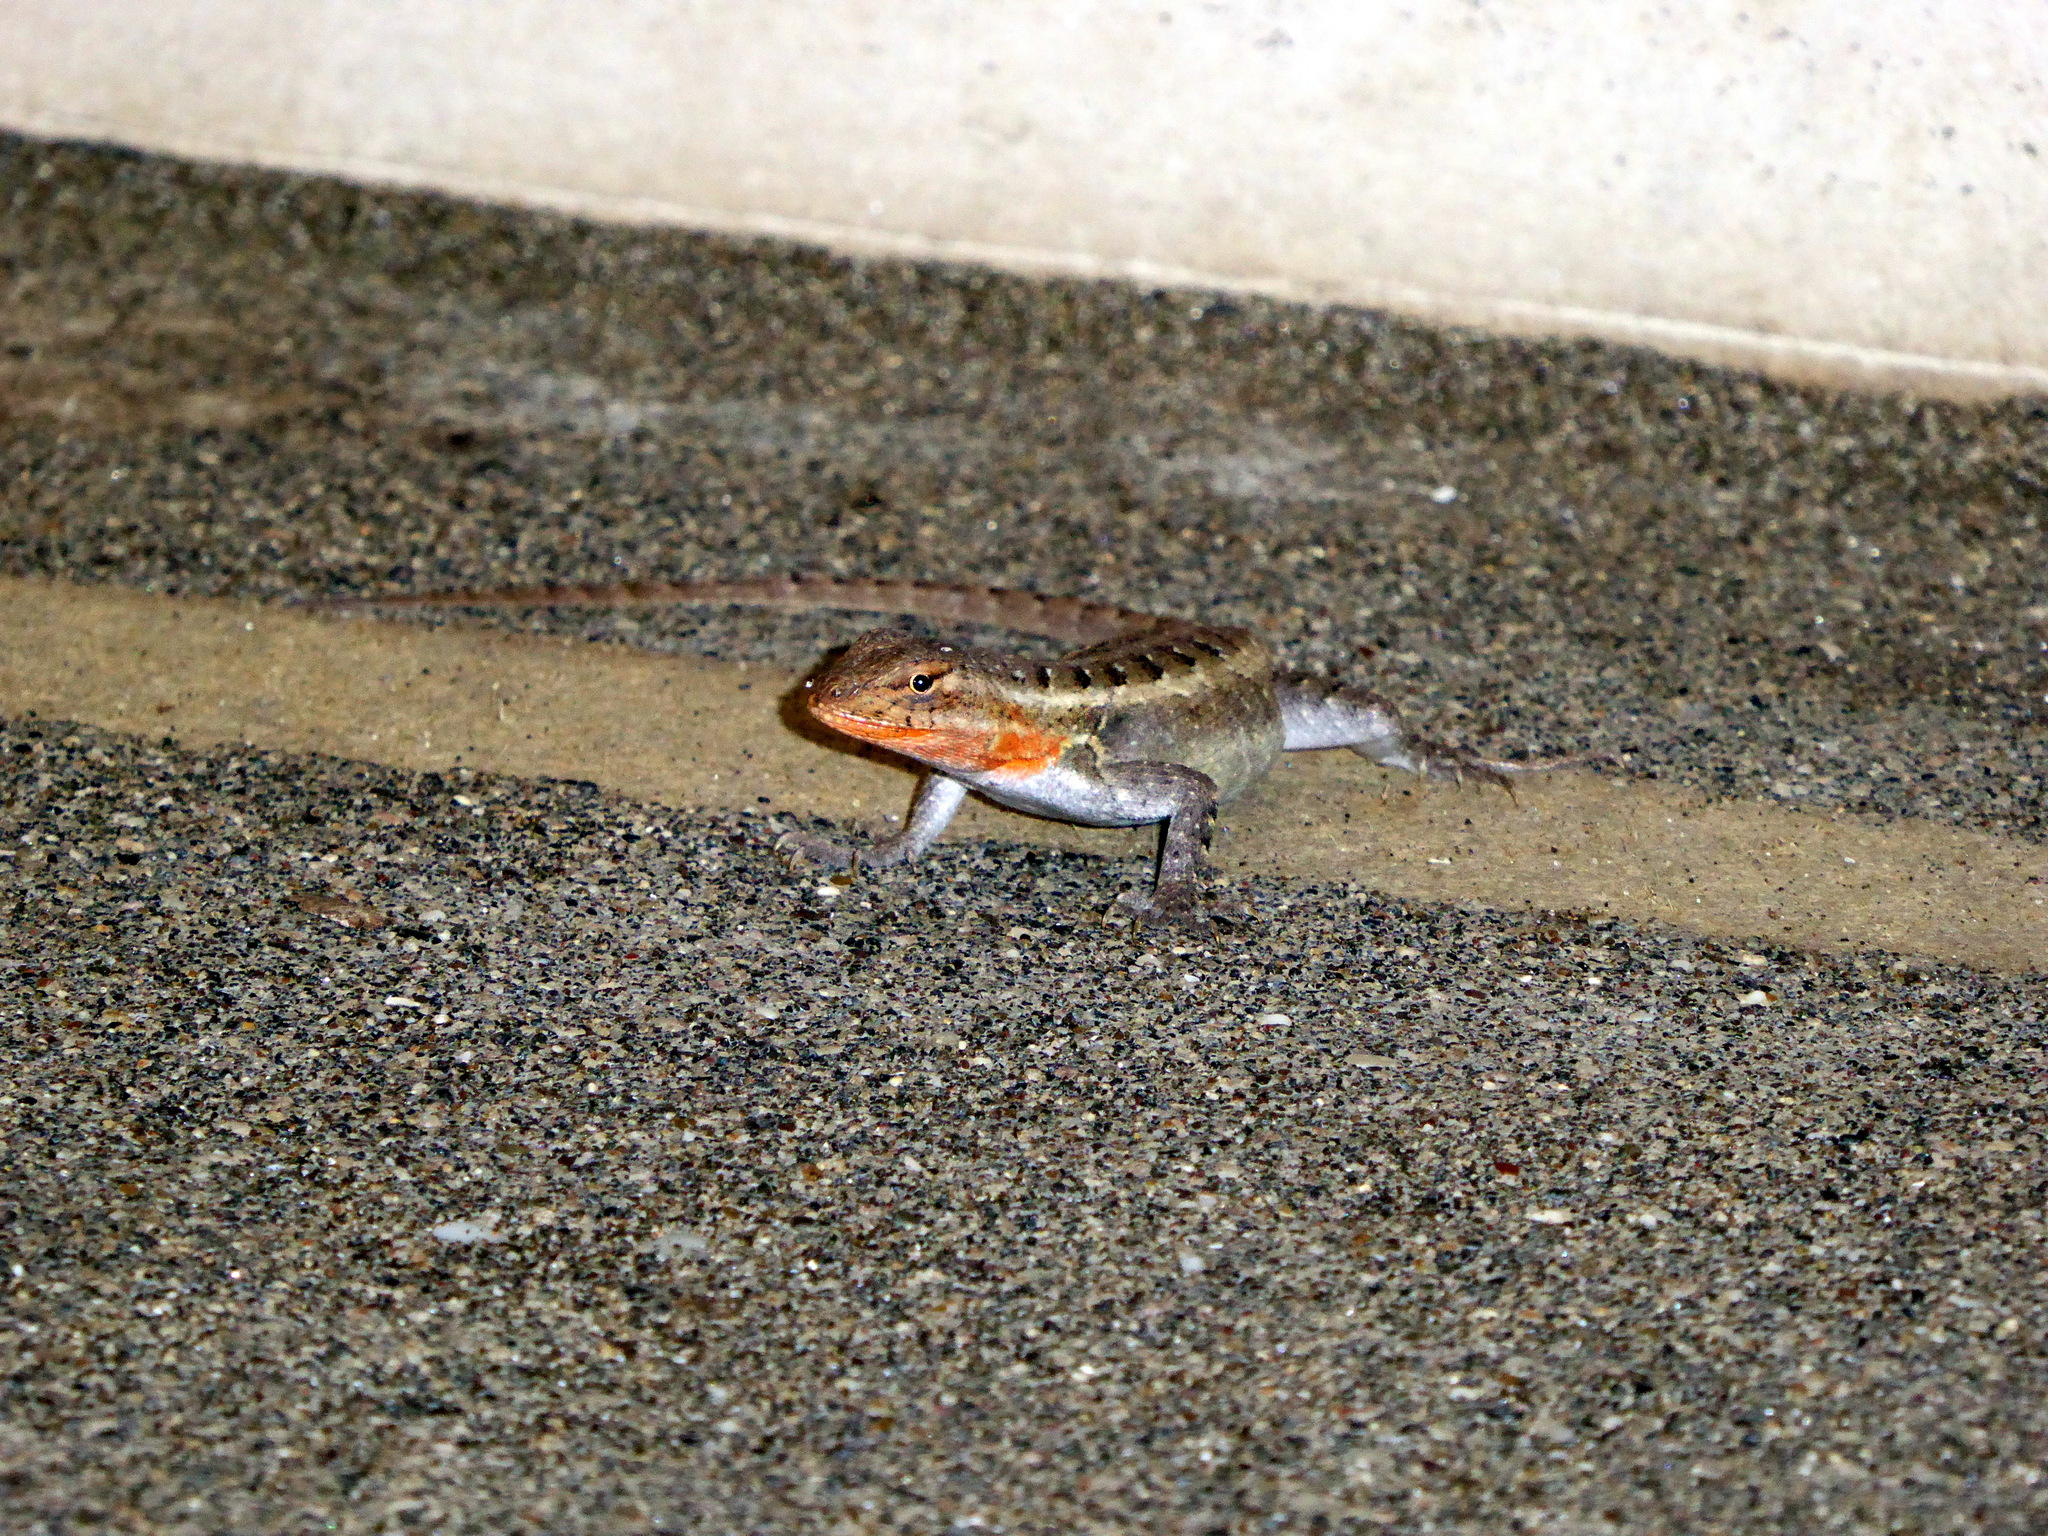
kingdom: Animalia
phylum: Chordata
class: Squamata
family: Phrynosomatidae
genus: Sceloporus
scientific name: Sceloporus variabilis
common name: Rosebelly lizard
